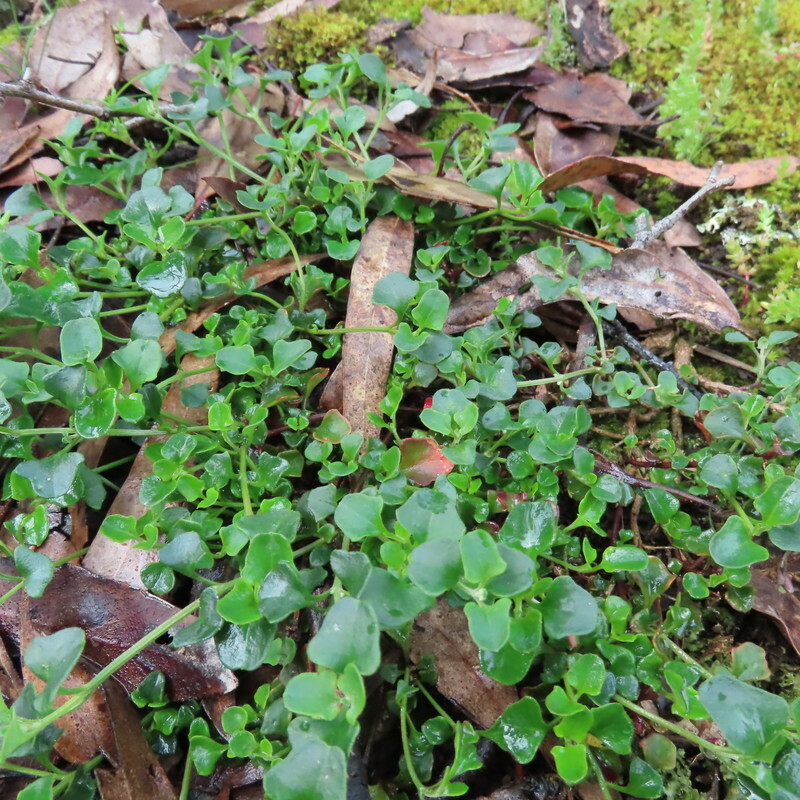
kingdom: Plantae
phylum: Tracheophyta
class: Magnoliopsida
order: Caryophyllales
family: Amaranthaceae
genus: Chenopodium
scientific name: Chenopodium robertianum
